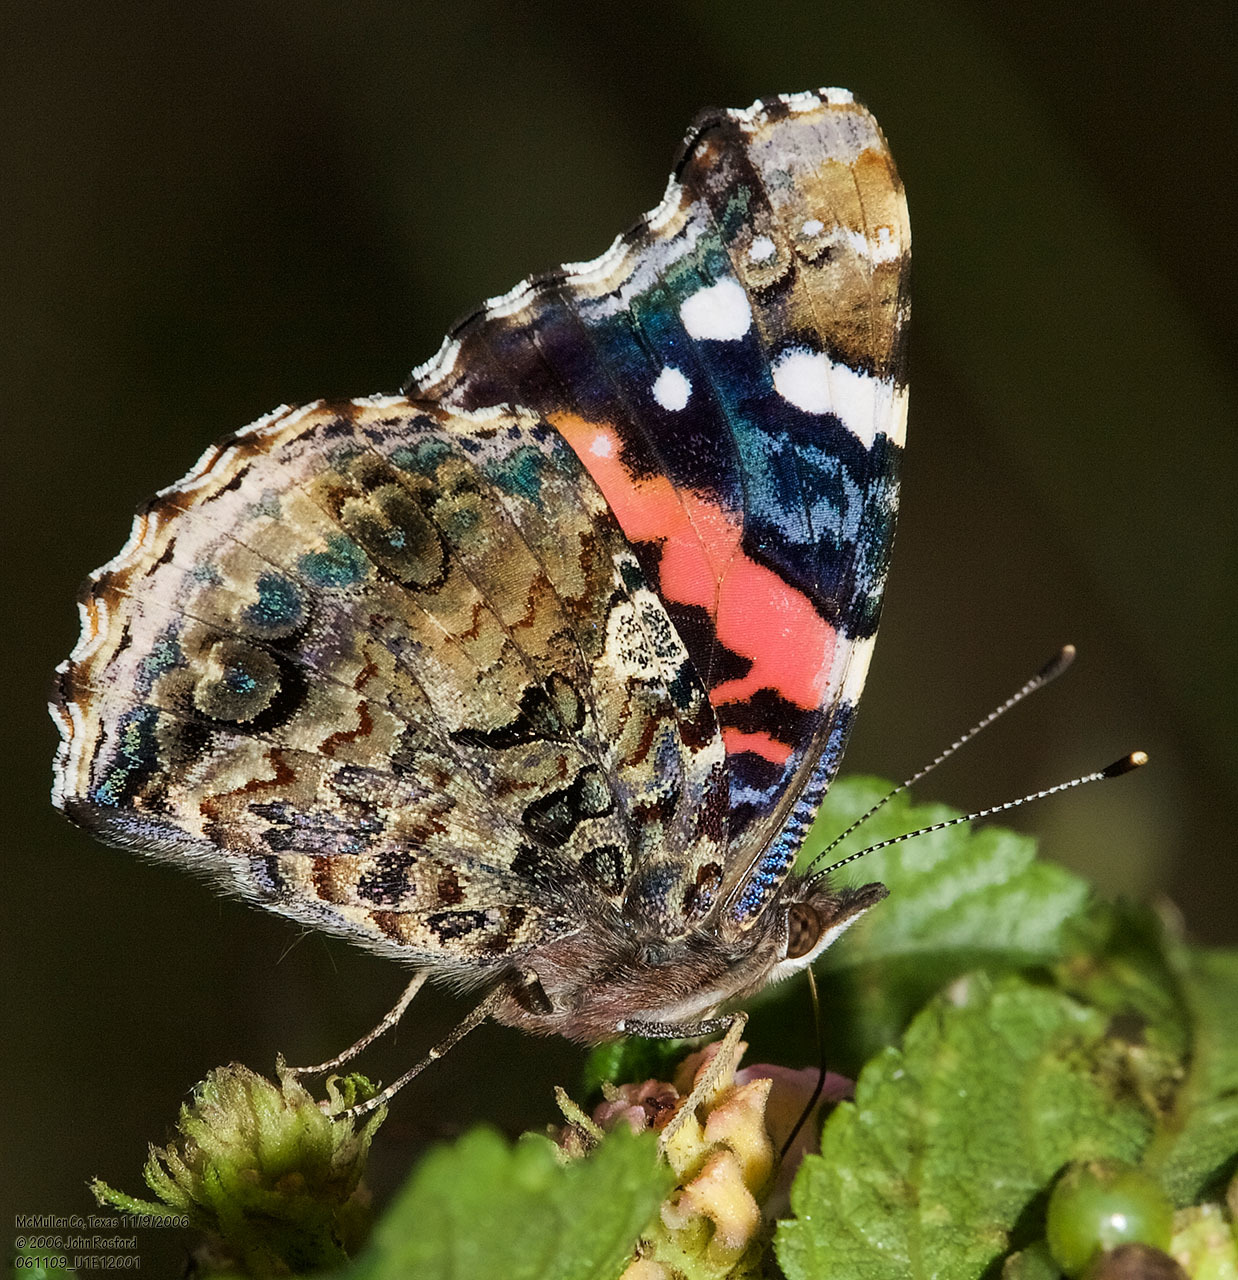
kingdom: Animalia
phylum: Arthropoda
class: Insecta
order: Lepidoptera
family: Nymphalidae
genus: Vanessa
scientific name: Vanessa atalanta
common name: Red admiral
